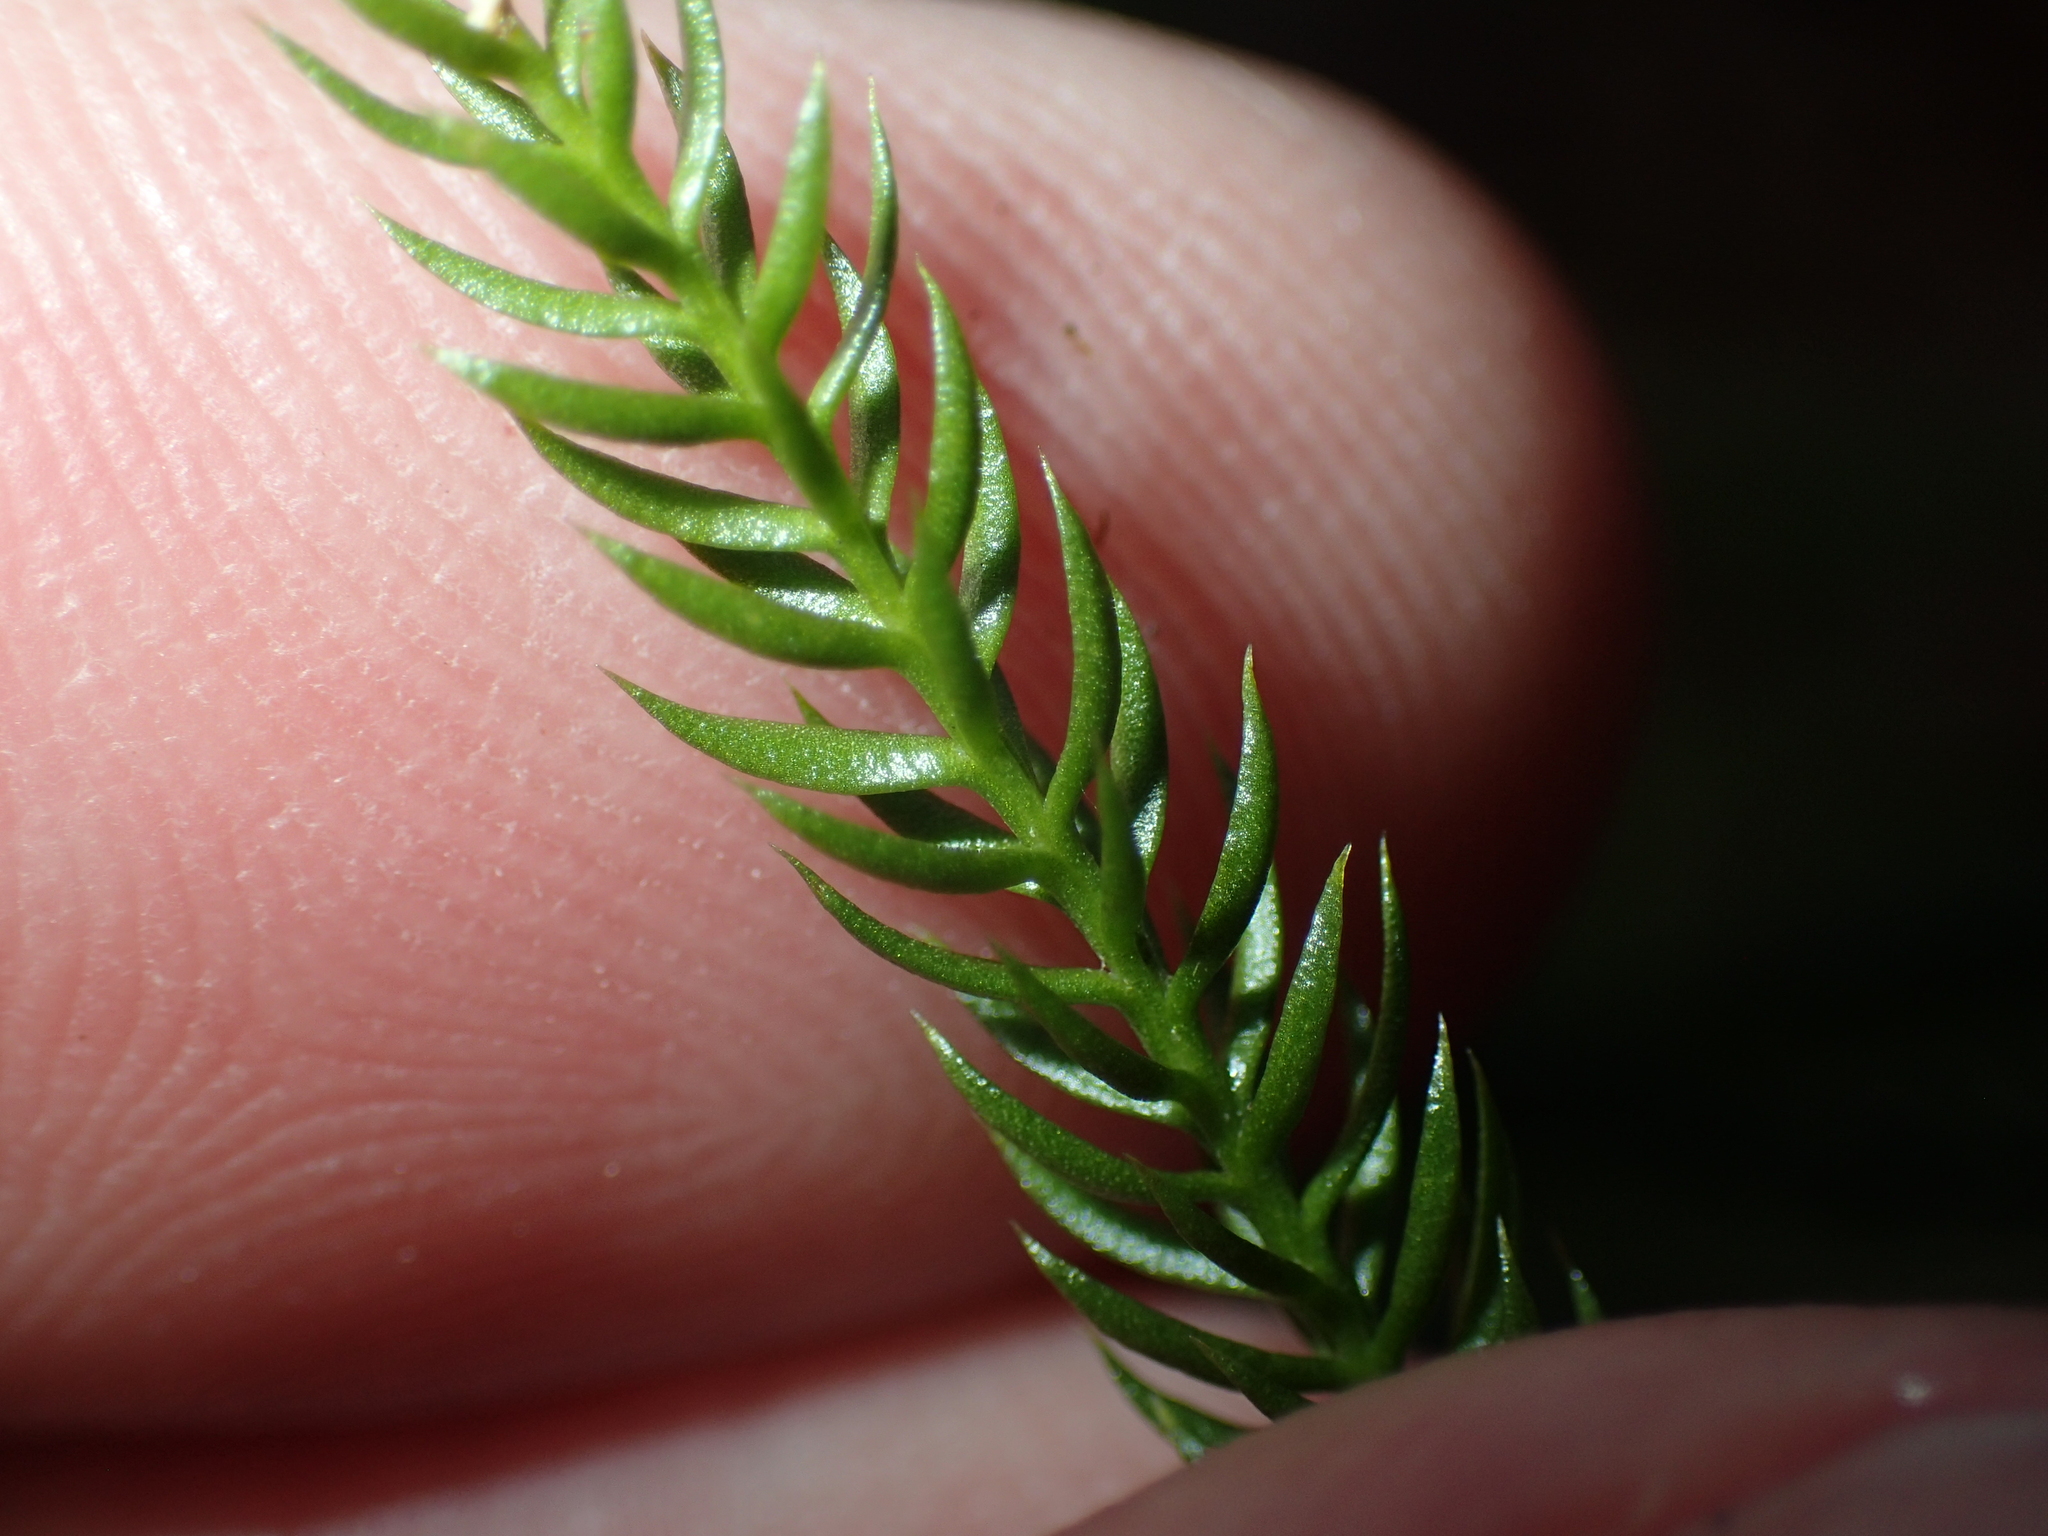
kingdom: Plantae
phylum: Tracheophyta
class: Lycopodiopsida
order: Lycopodiales
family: Lycopodiaceae
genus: Dendrolycopodium
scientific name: Dendrolycopodium hickeyi
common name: Hickey's clubmoss
